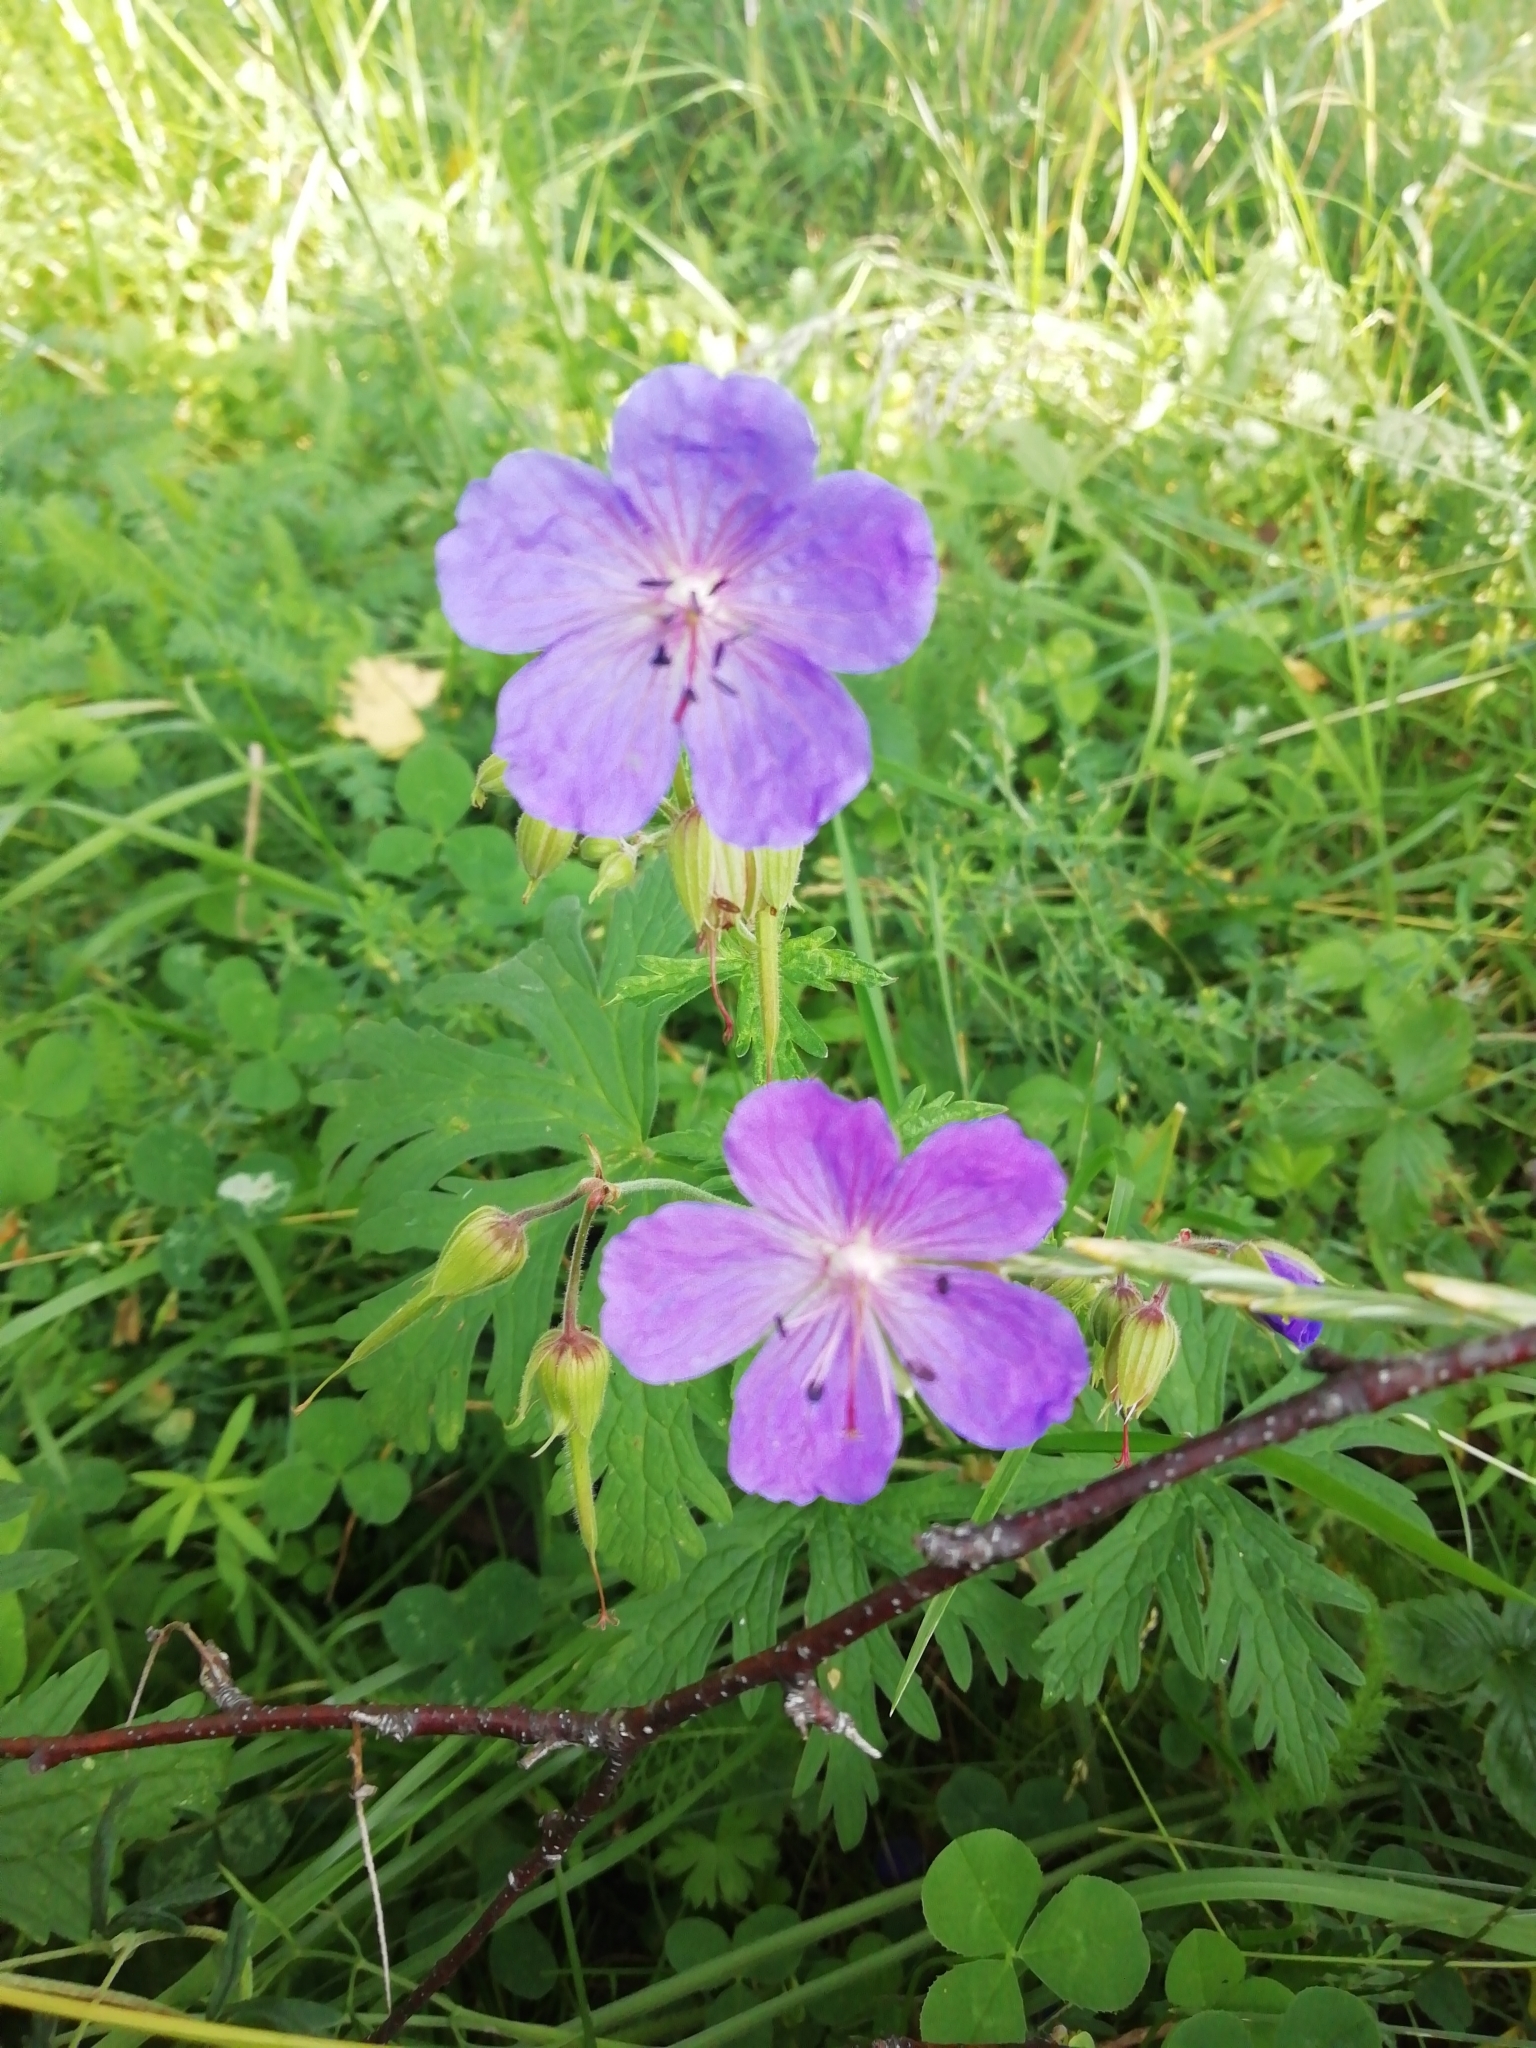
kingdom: Plantae
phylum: Tracheophyta
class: Magnoliopsida
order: Geraniales
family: Geraniaceae
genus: Geranium
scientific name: Geranium pratense
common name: Meadow crane's-bill
